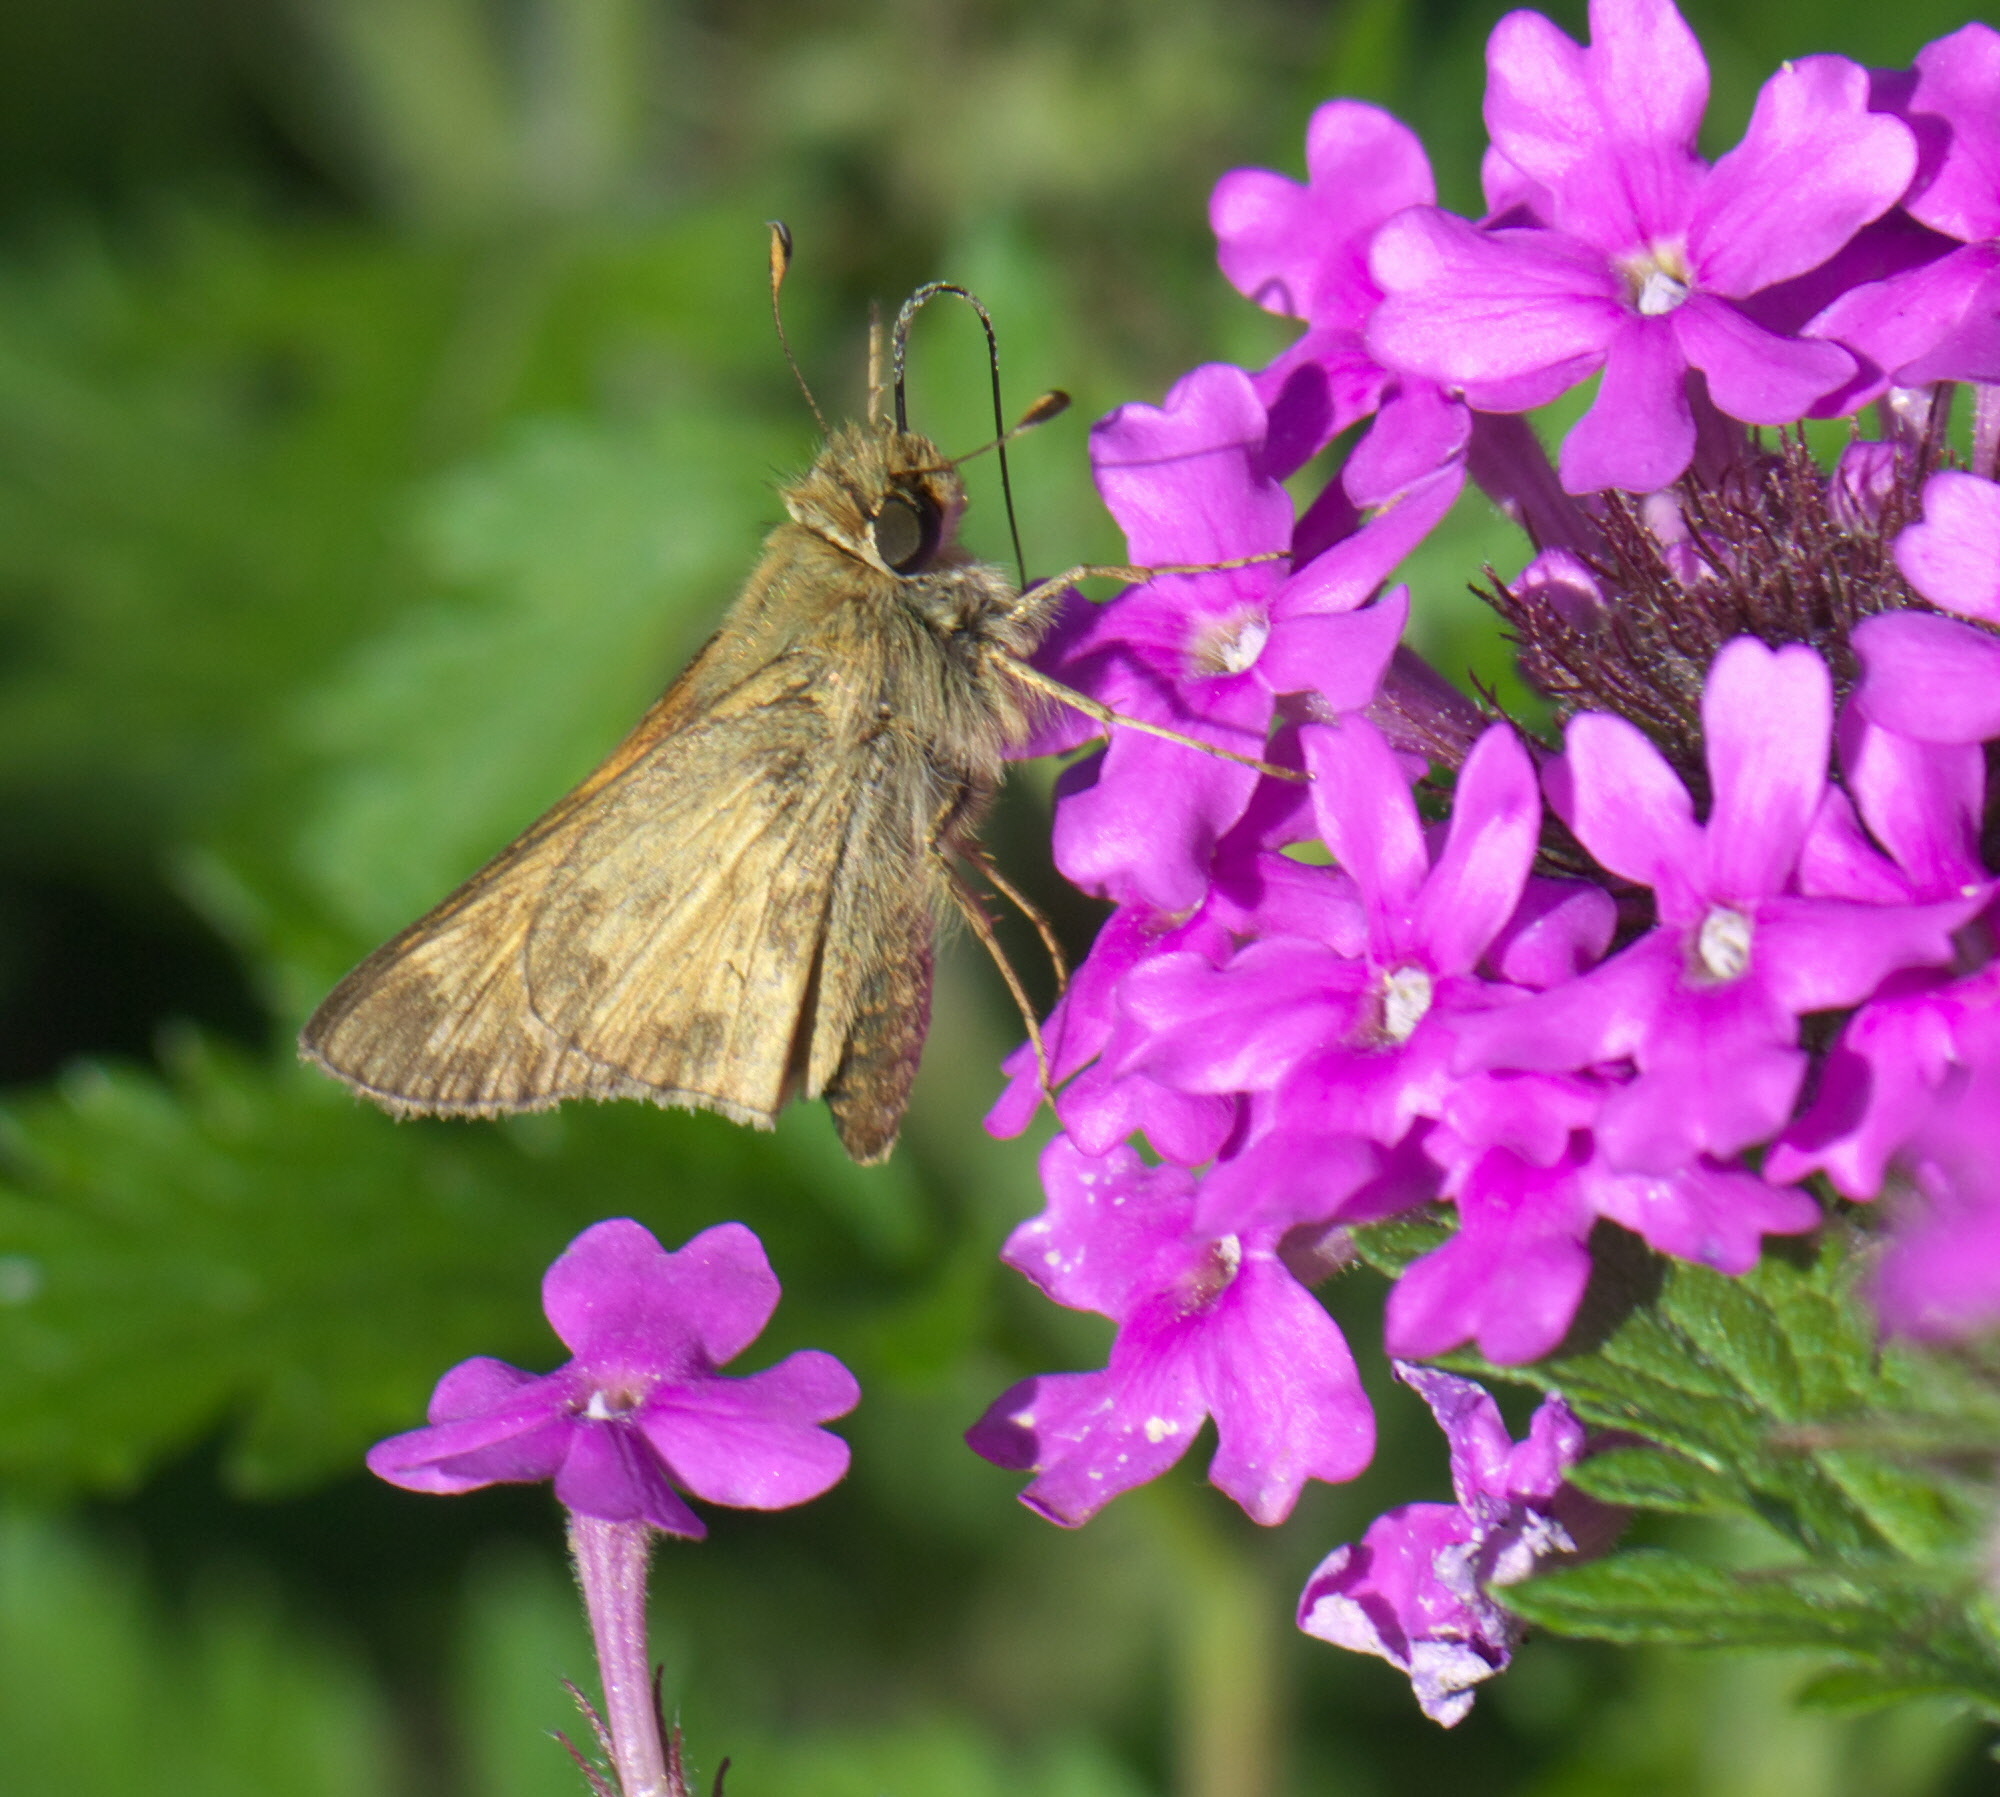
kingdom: Animalia
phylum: Arthropoda
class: Insecta
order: Lepidoptera
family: Hesperiidae
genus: Atalopedes
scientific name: Atalopedes
